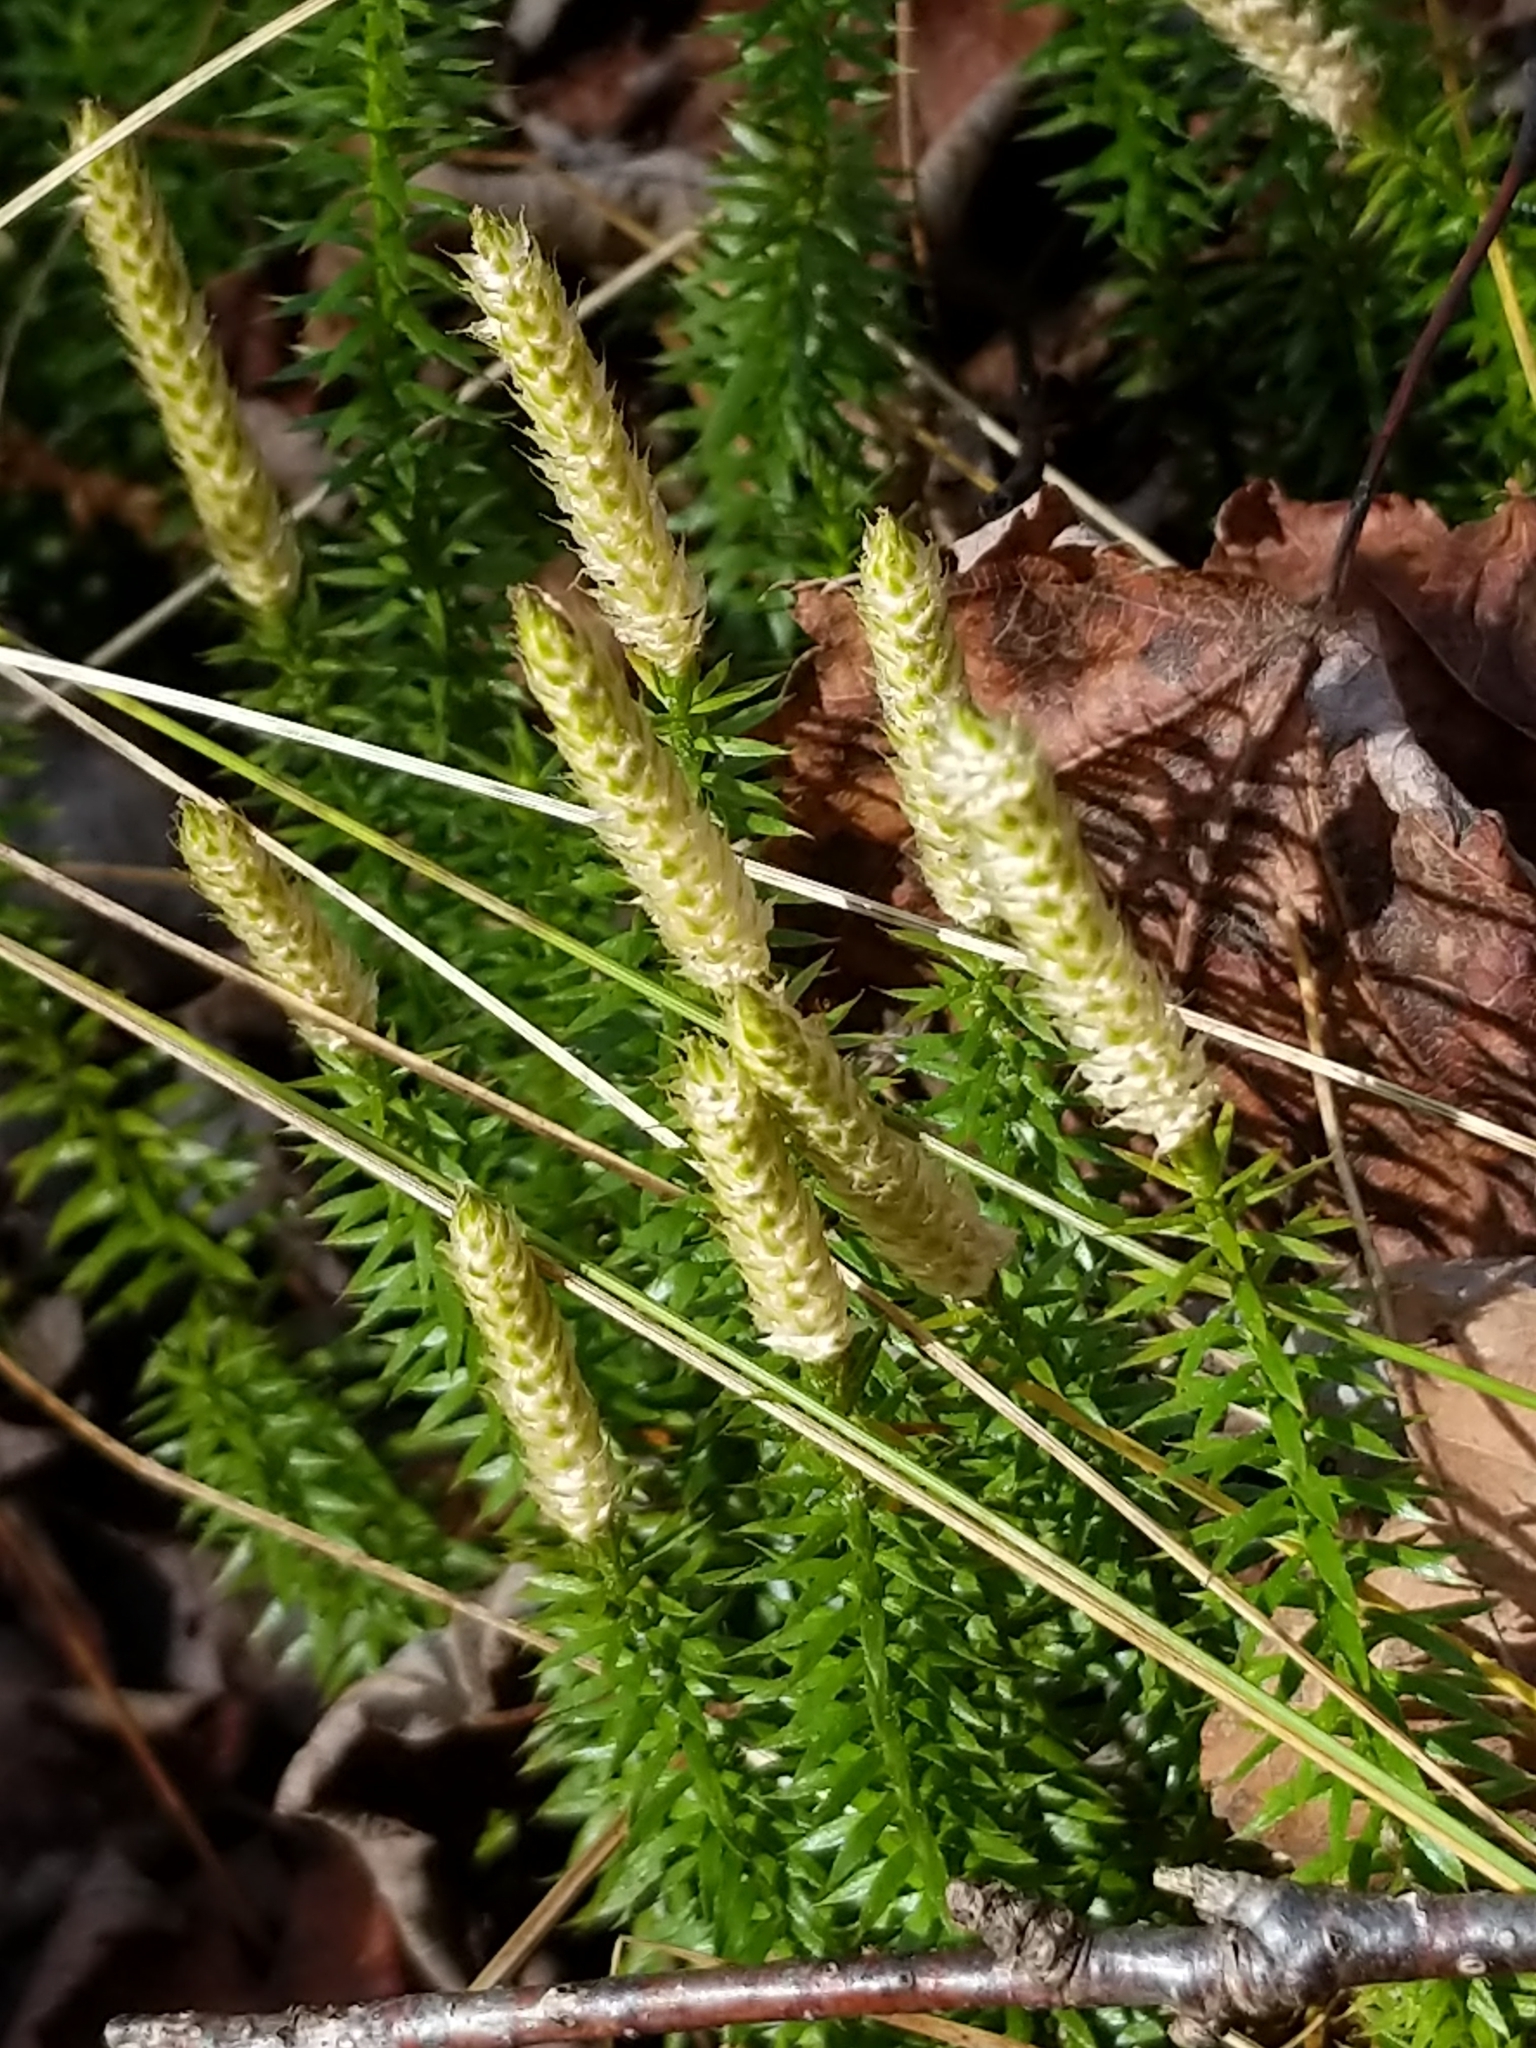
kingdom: Plantae
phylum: Tracheophyta
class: Lycopodiopsida
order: Lycopodiales
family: Lycopodiaceae
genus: Spinulum
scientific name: Spinulum annotinum
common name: Interrupted club-moss
